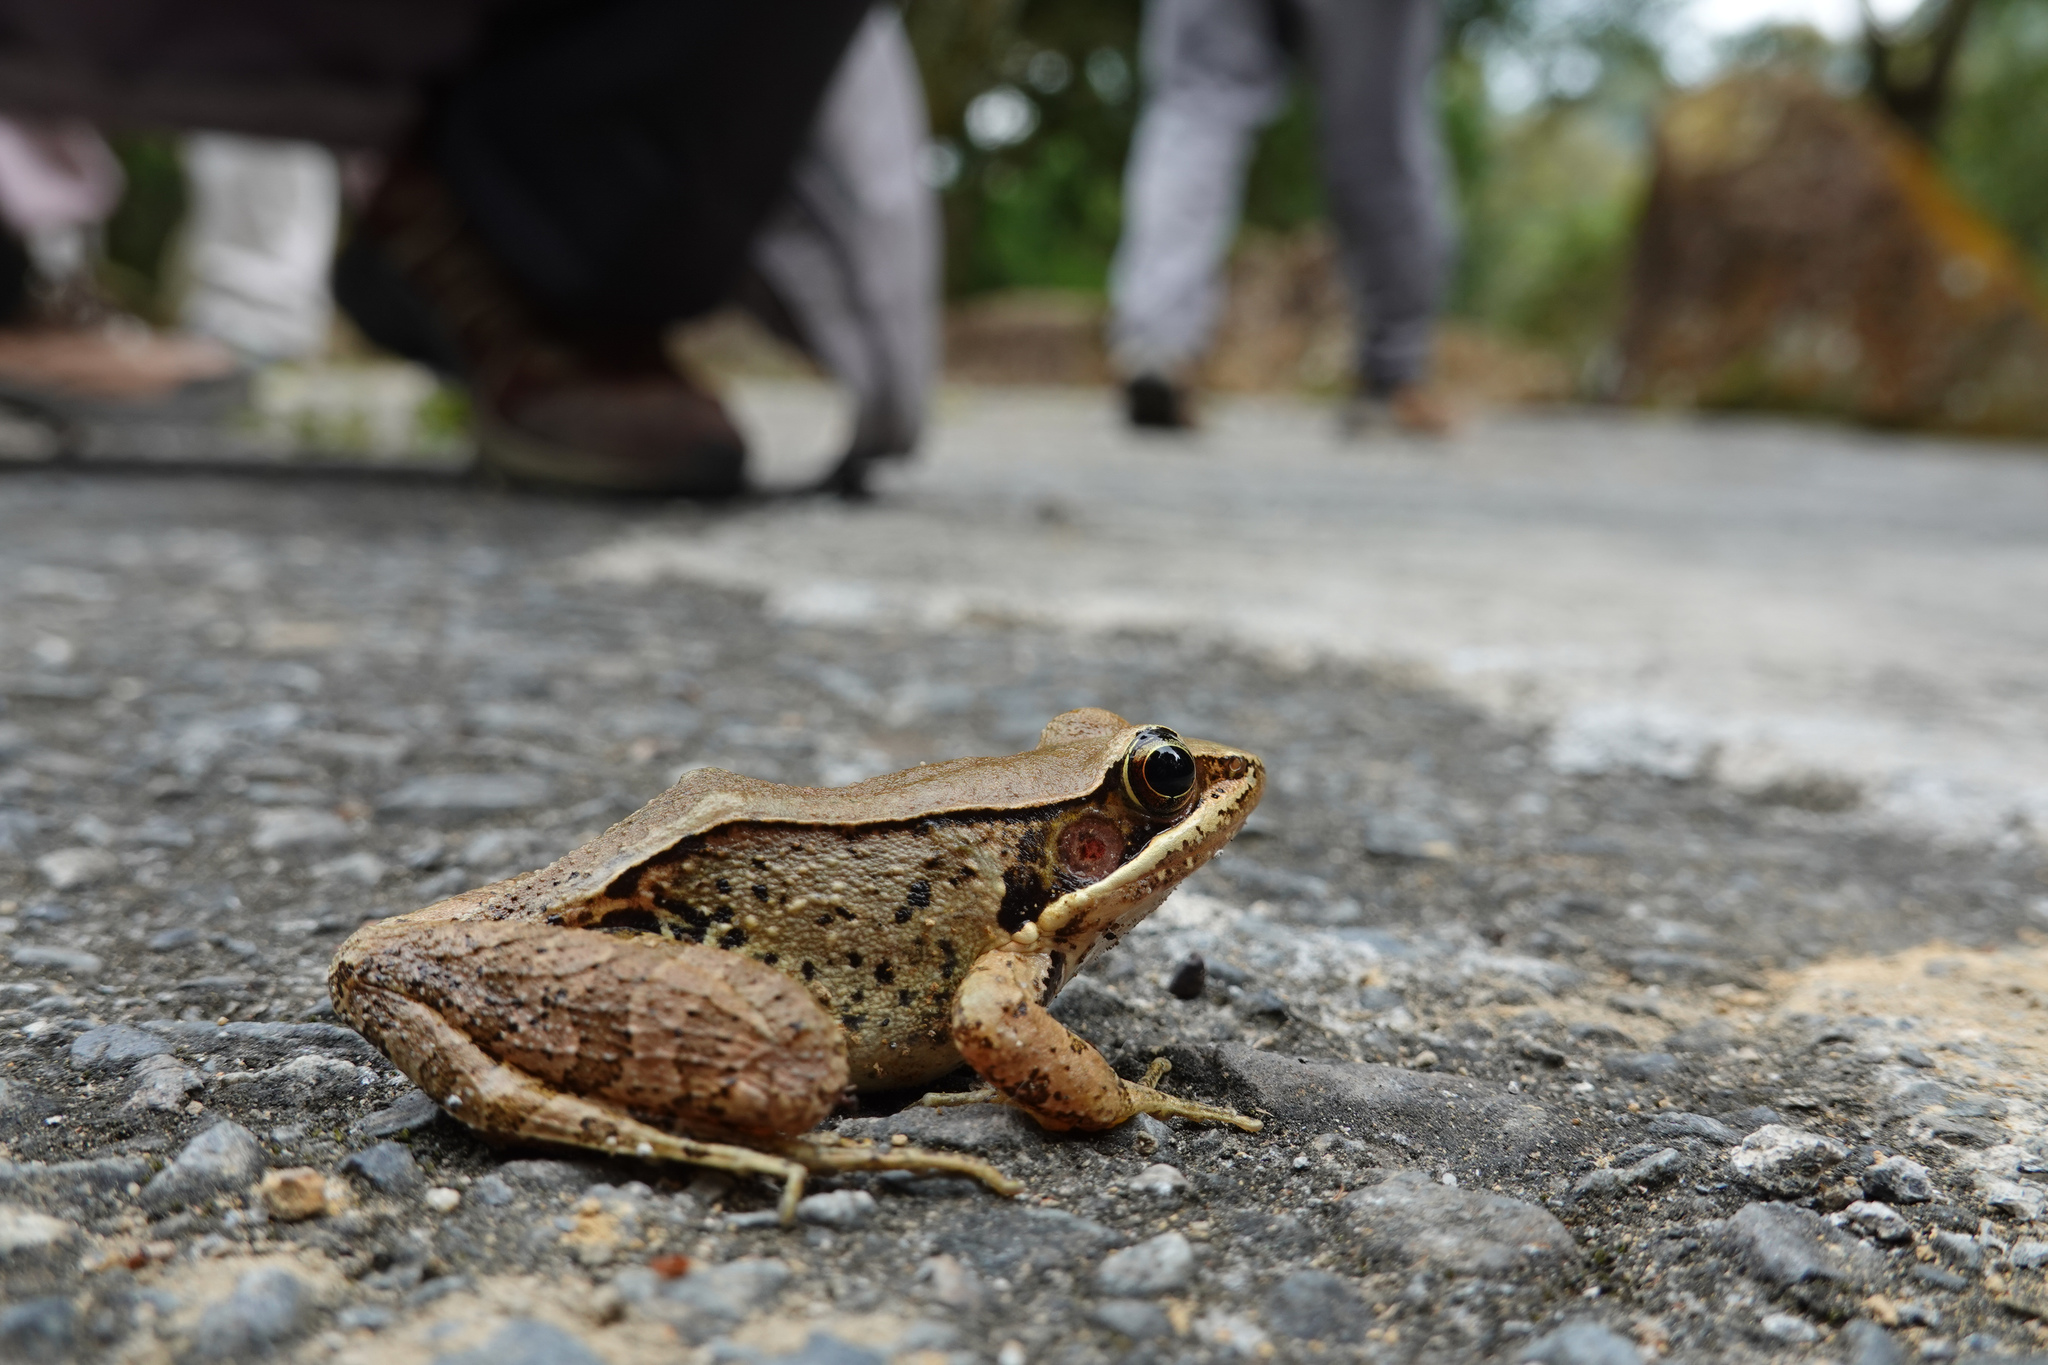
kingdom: Animalia
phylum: Chordata
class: Amphibia
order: Anura
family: Ranidae
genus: Nidirana
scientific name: Nidirana adenopleura
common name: Olive frog
